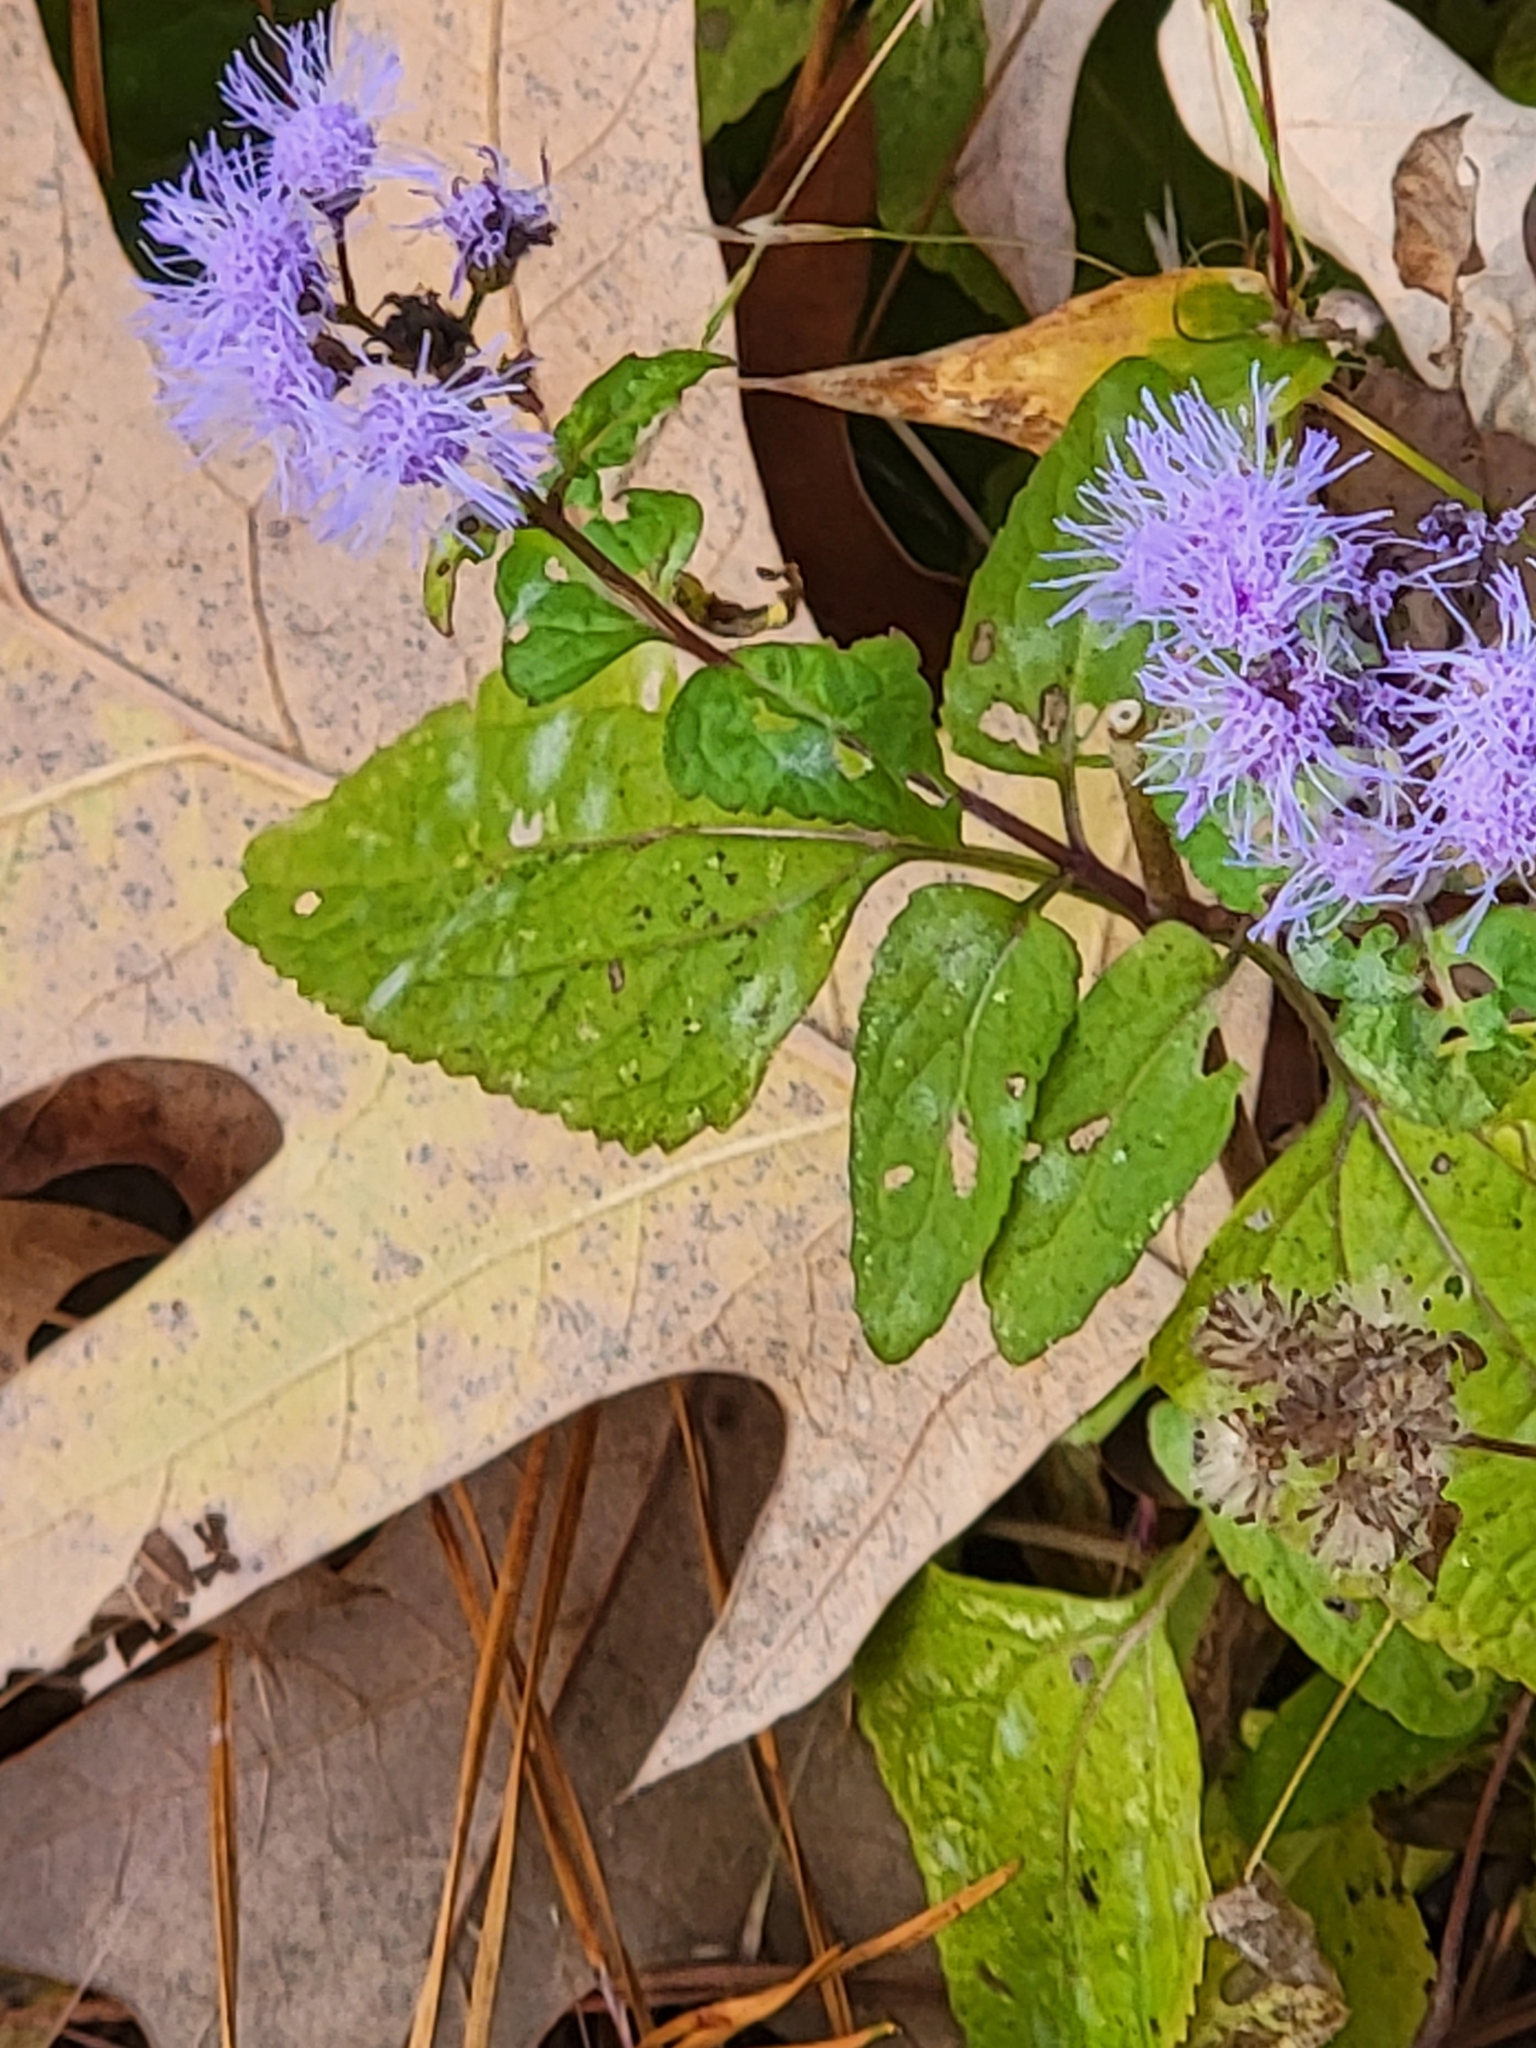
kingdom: Plantae
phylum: Tracheophyta
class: Magnoliopsida
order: Asterales
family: Asteraceae
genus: Conoclinium
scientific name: Conoclinium coelestinum
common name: Blue mistflower
